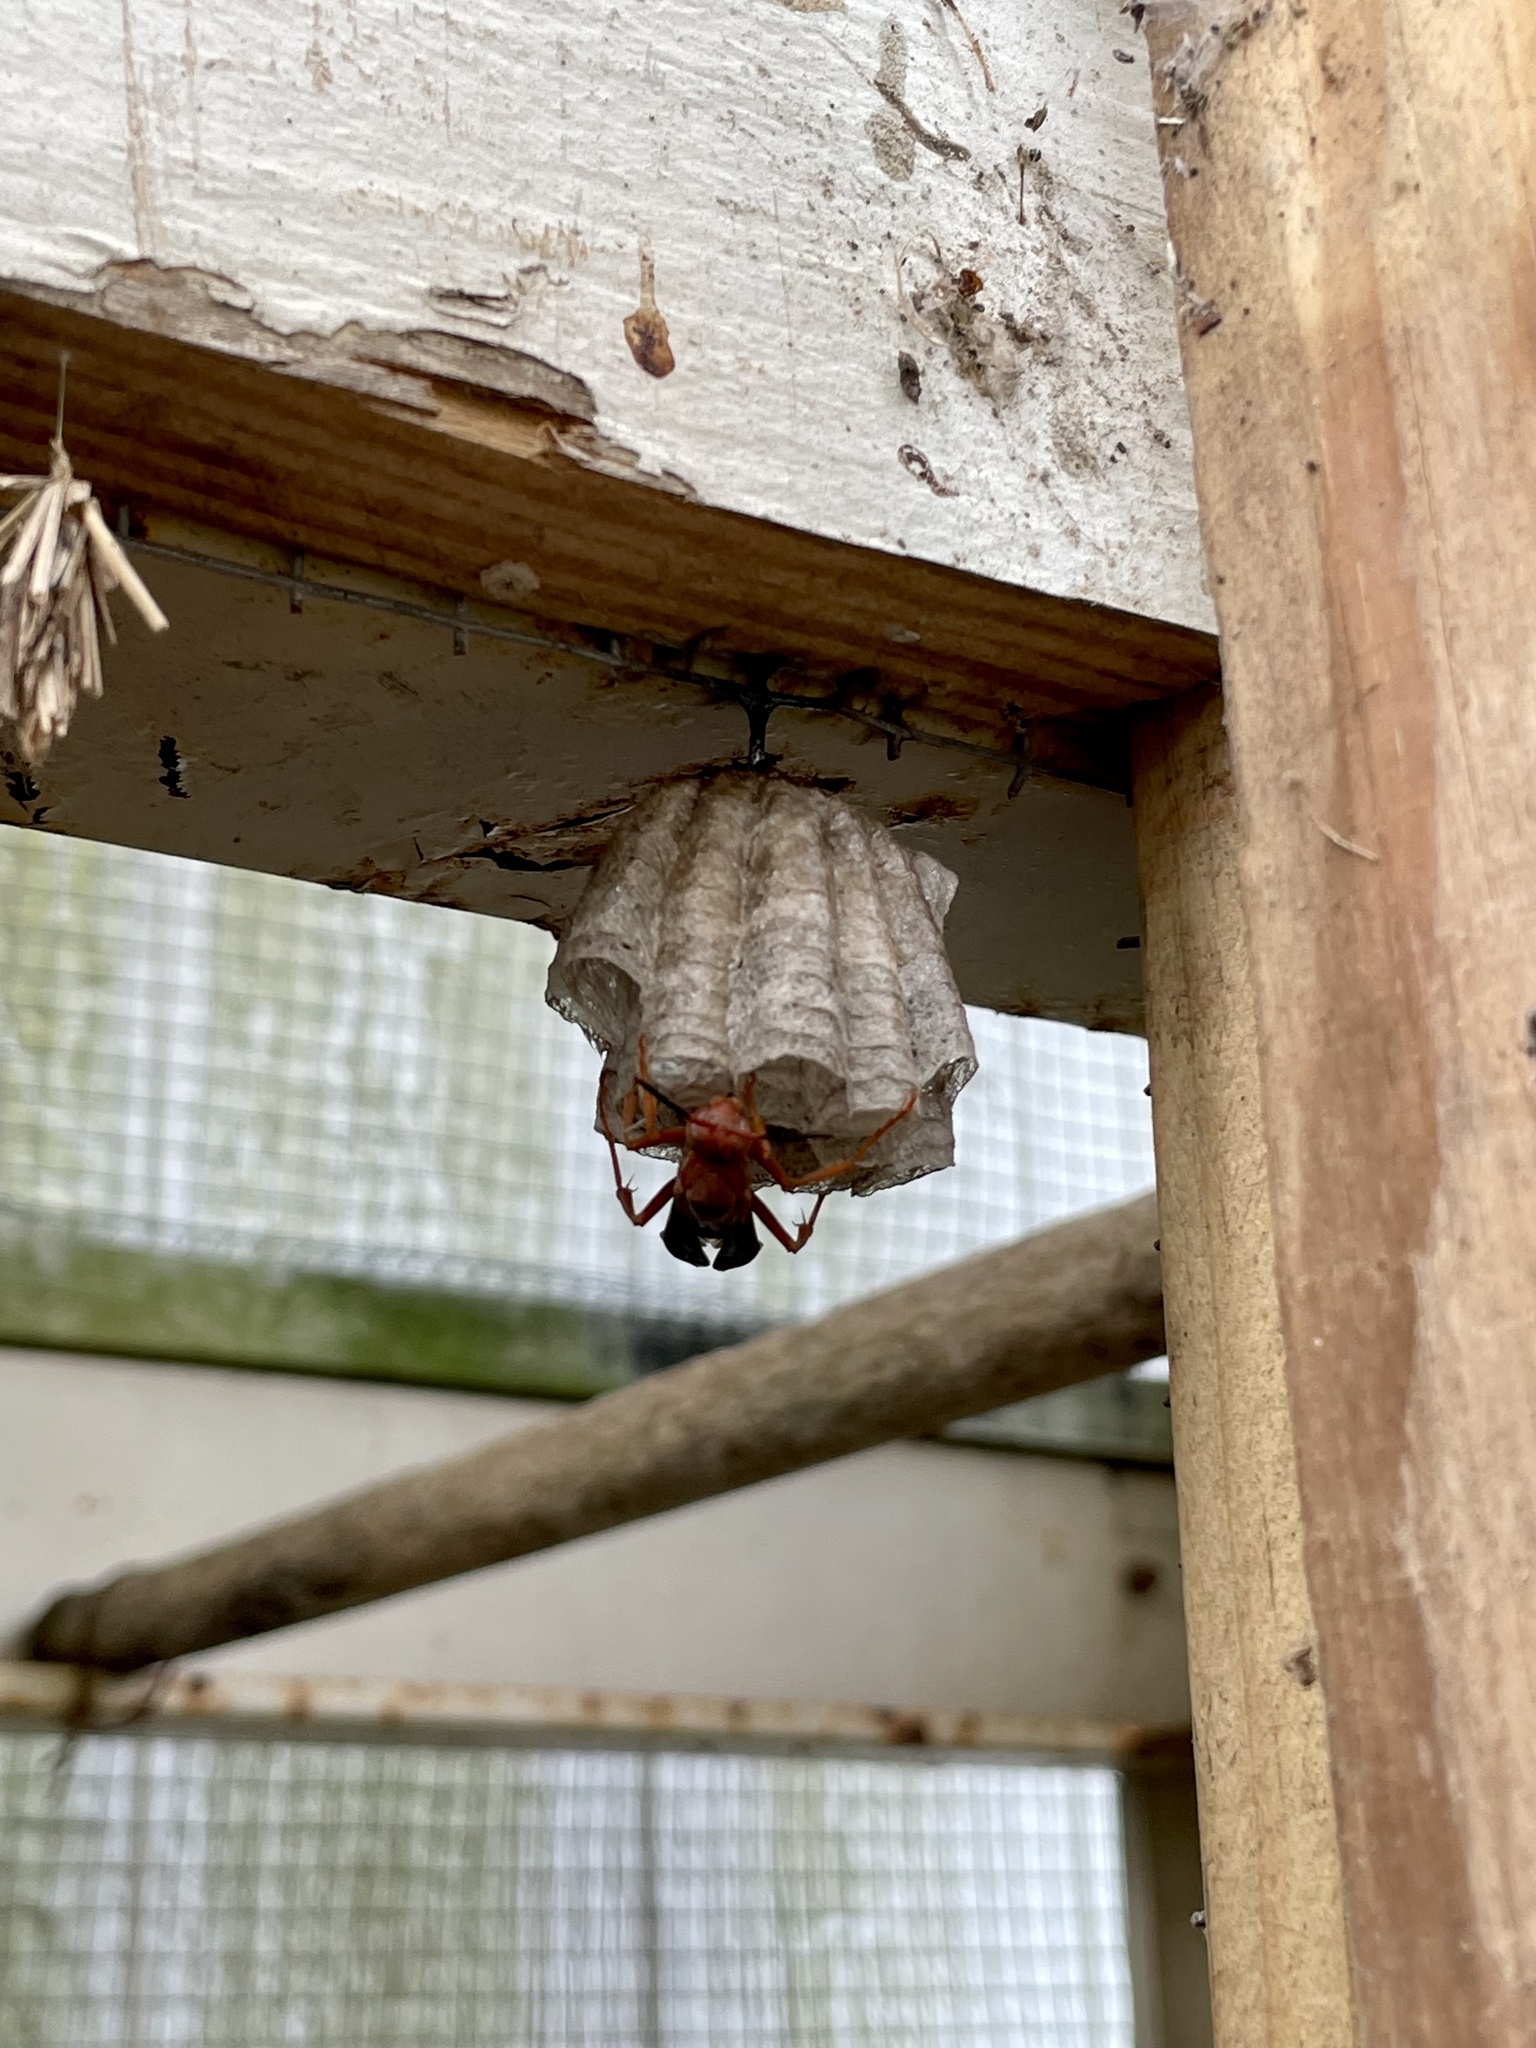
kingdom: Animalia
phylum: Arthropoda
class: Insecta
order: Hymenoptera
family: Vespidae
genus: Fuscopolistes
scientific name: Fuscopolistes
